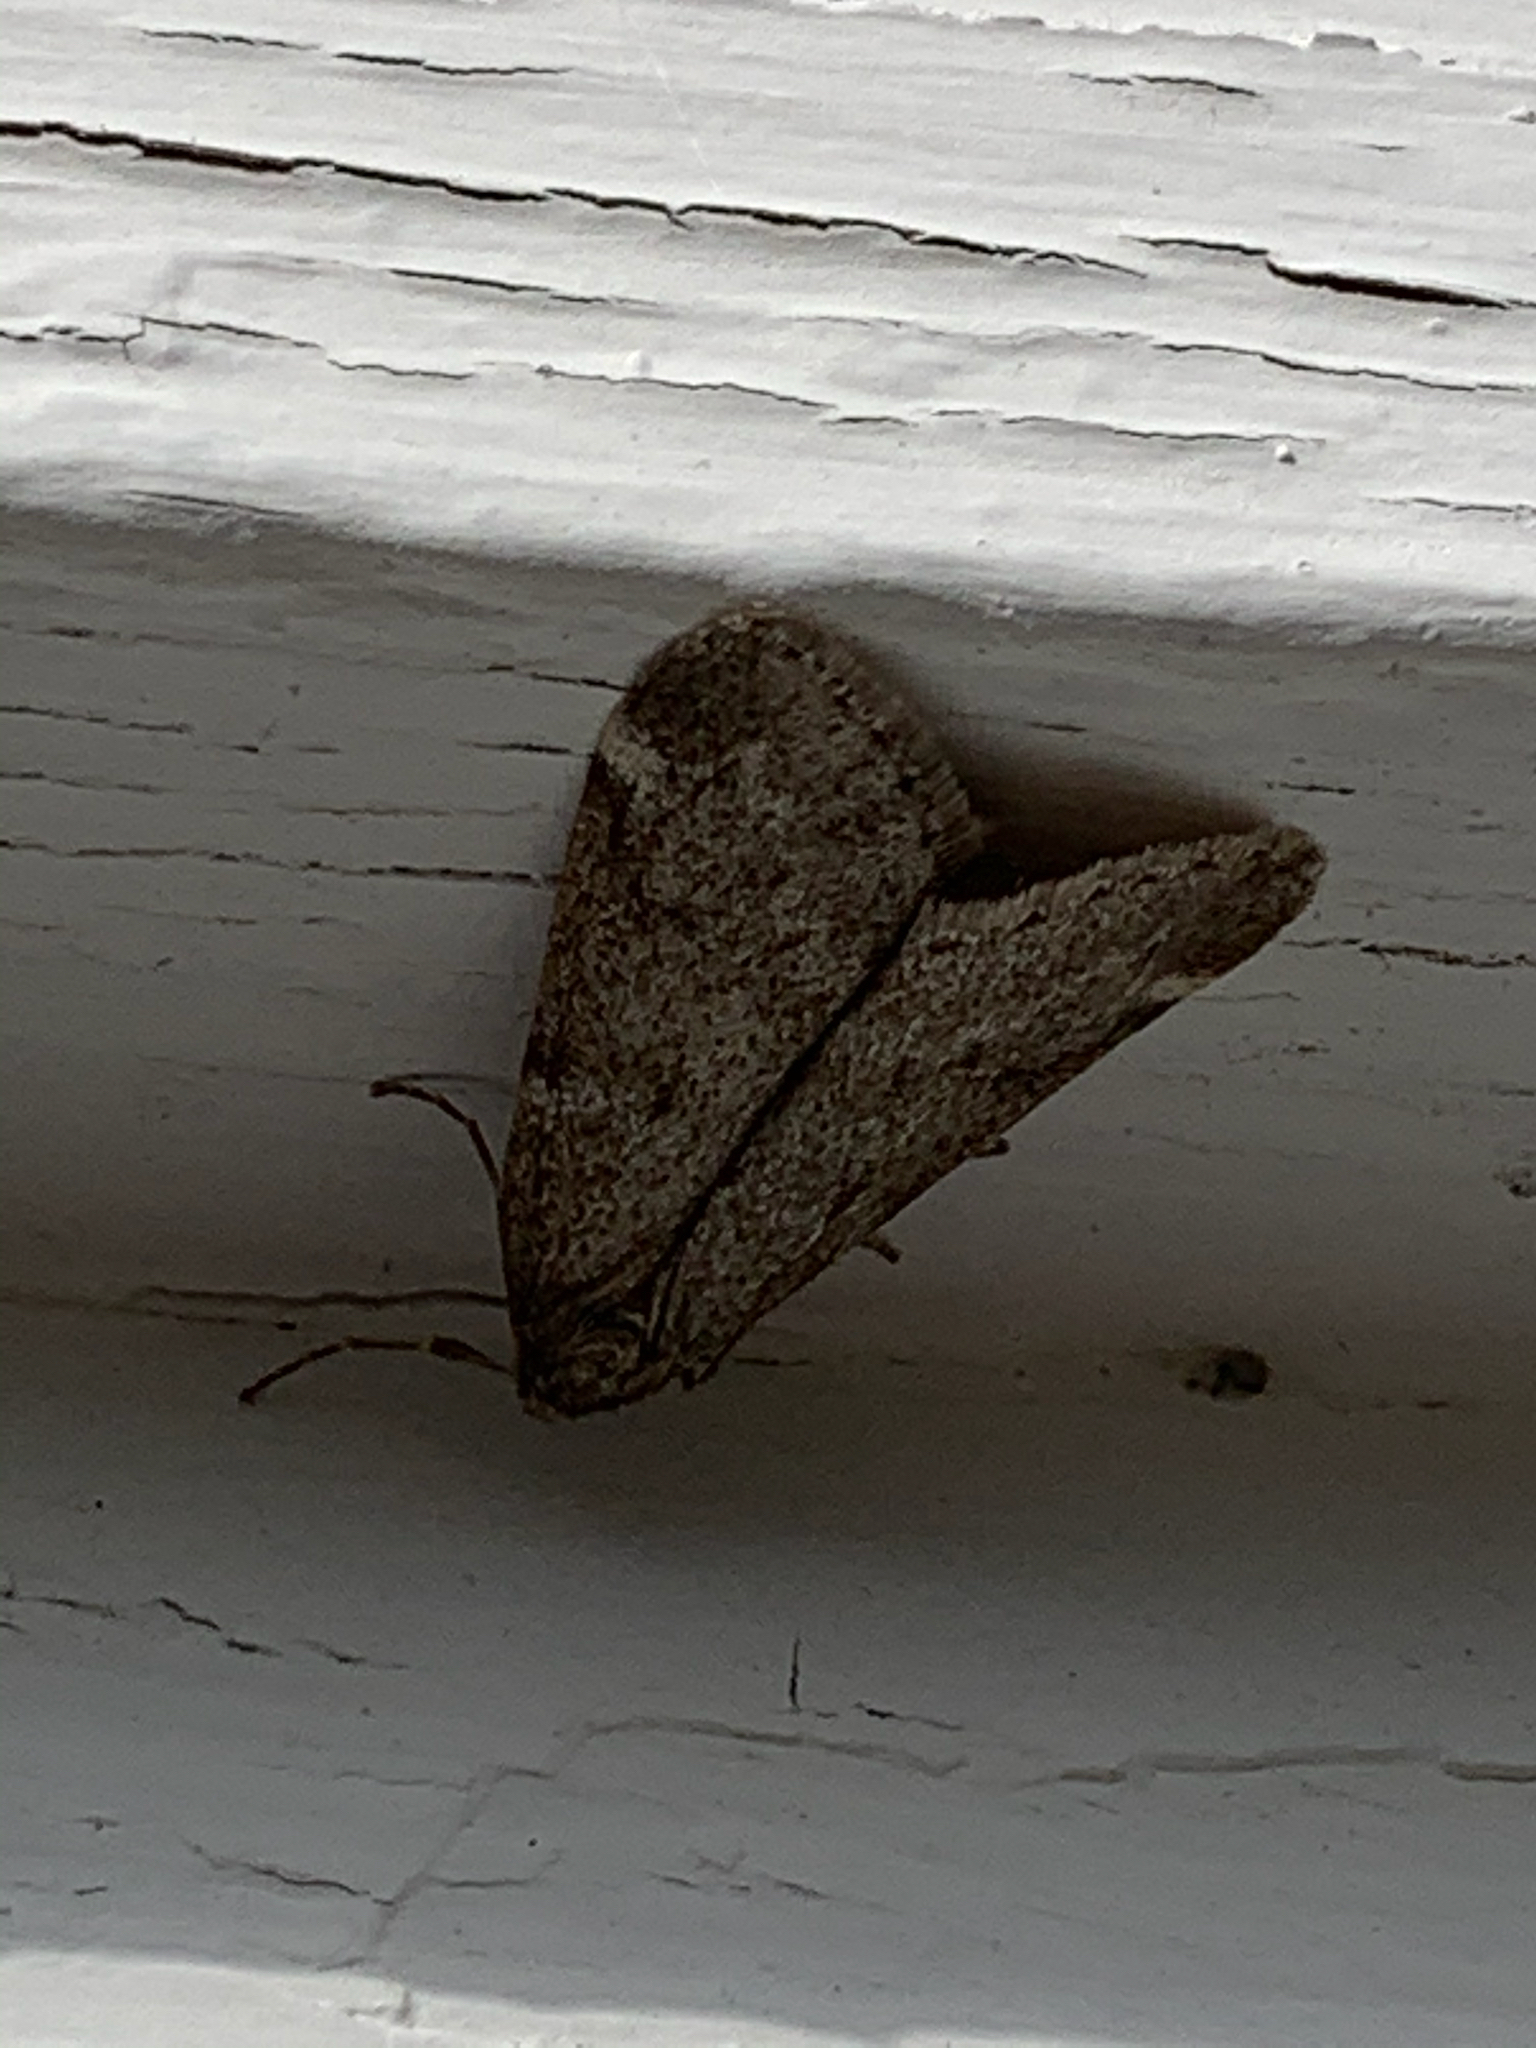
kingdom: Animalia
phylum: Arthropoda
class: Insecta
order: Lepidoptera
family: Geometridae
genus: Alsophila
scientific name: Alsophila pometaria
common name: Fall cankerworm
